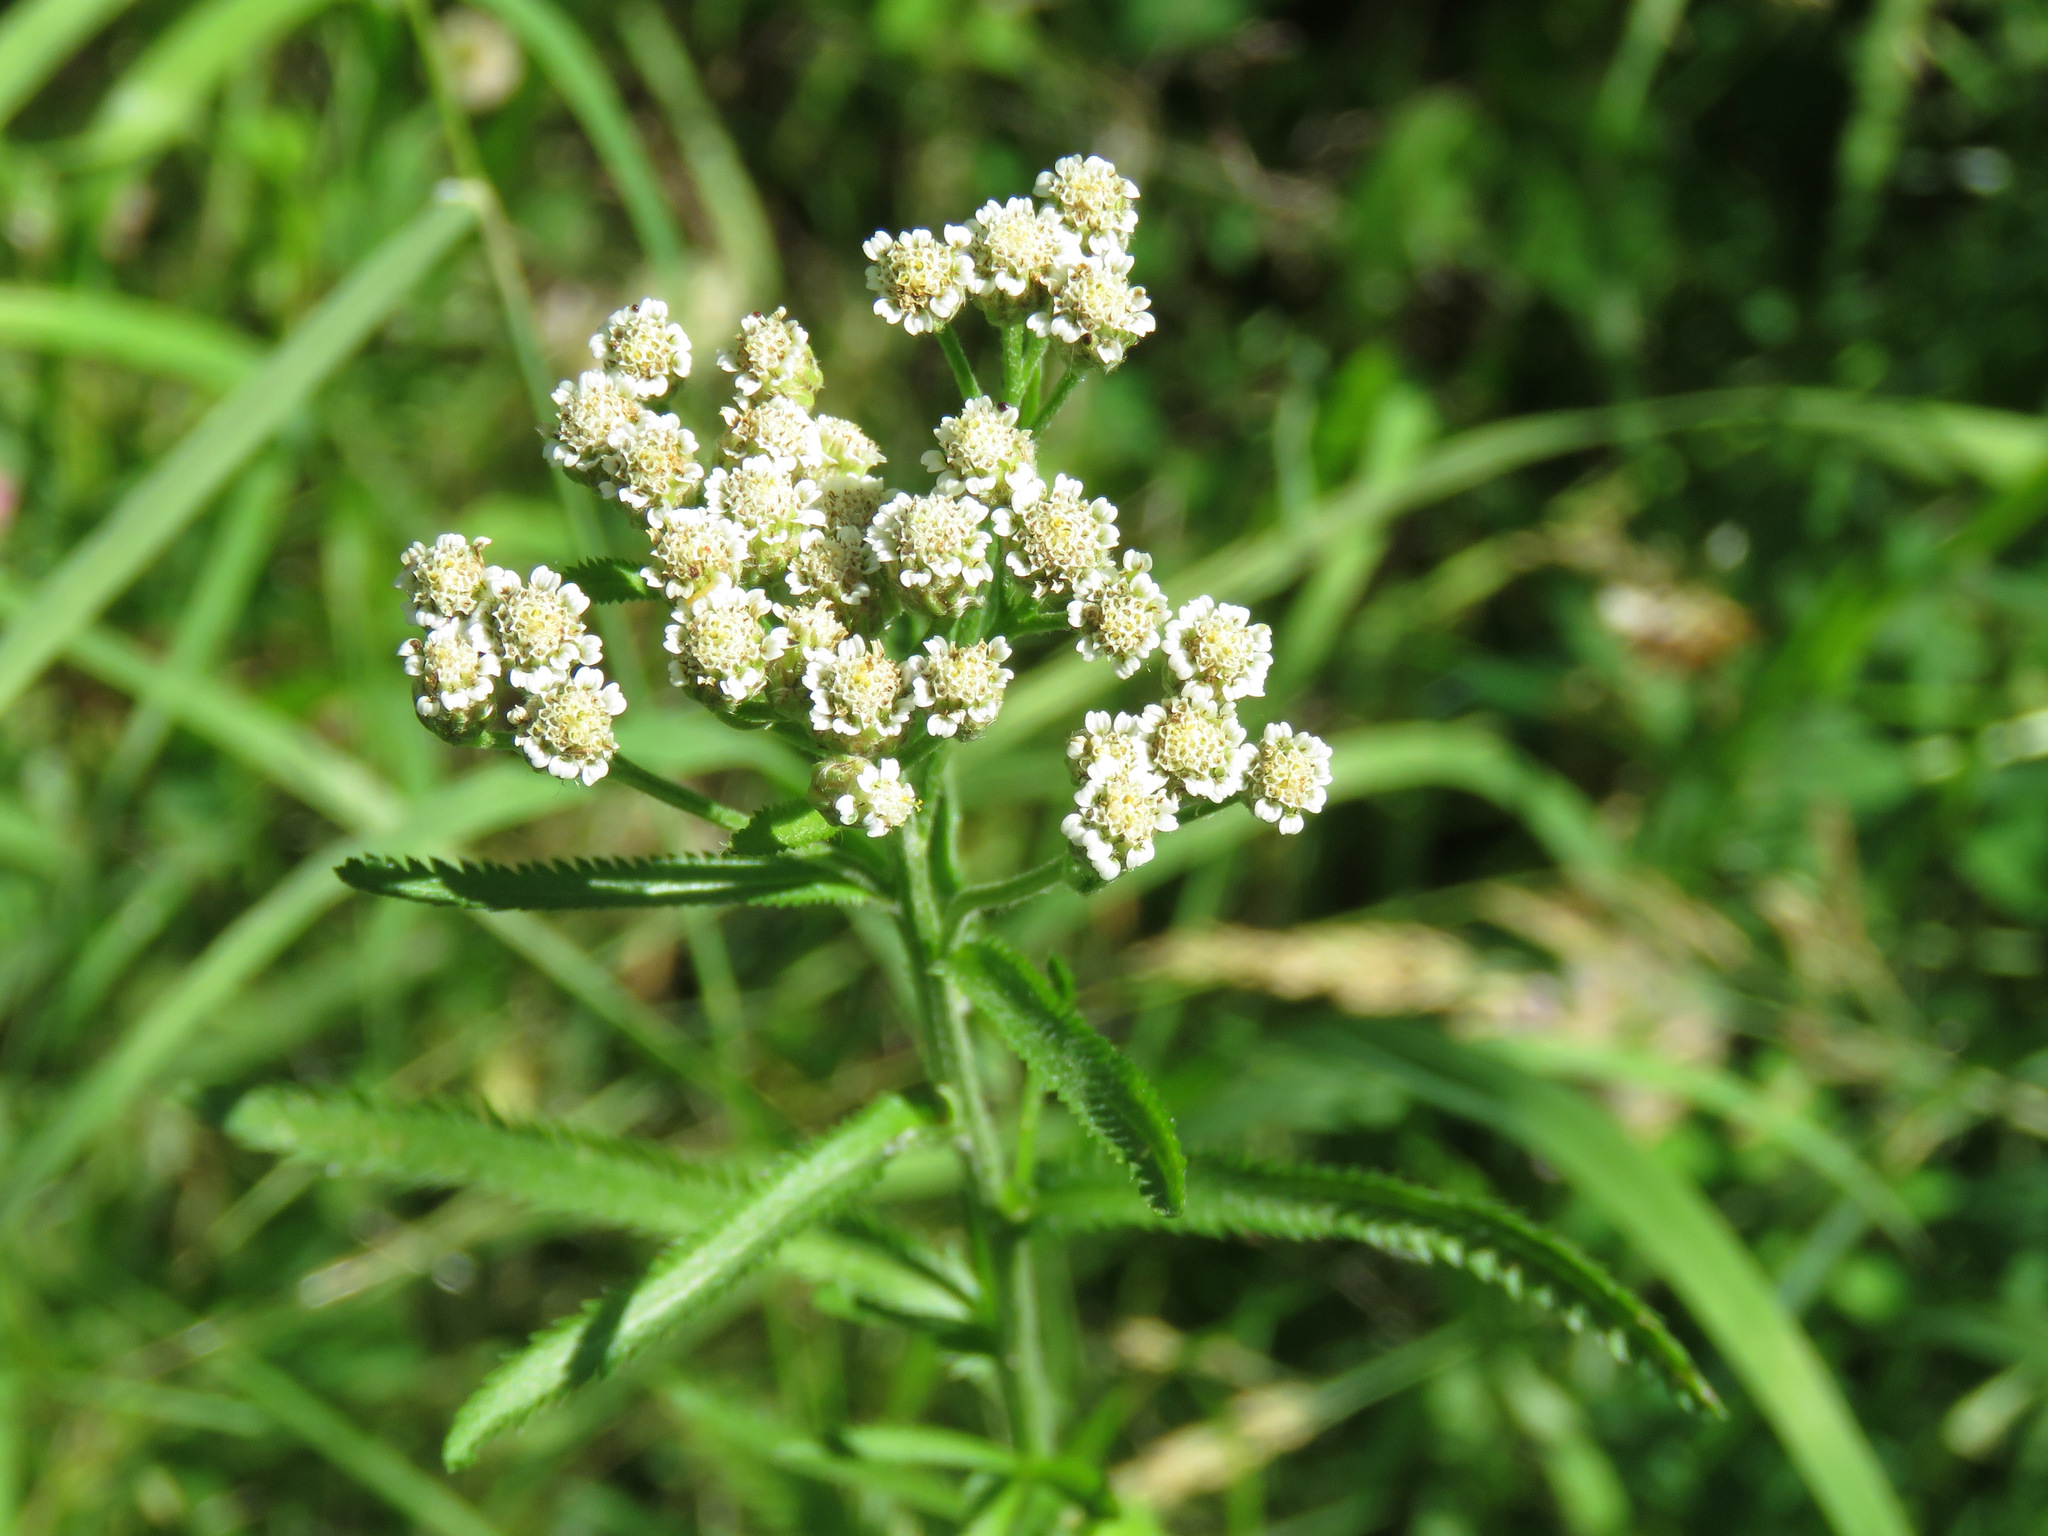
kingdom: Plantae
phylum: Tracheophyta
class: Magnoliopsida
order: Asterales
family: Asteraceae
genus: Achillea
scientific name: Achillea alpina
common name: Siberian yarrow
